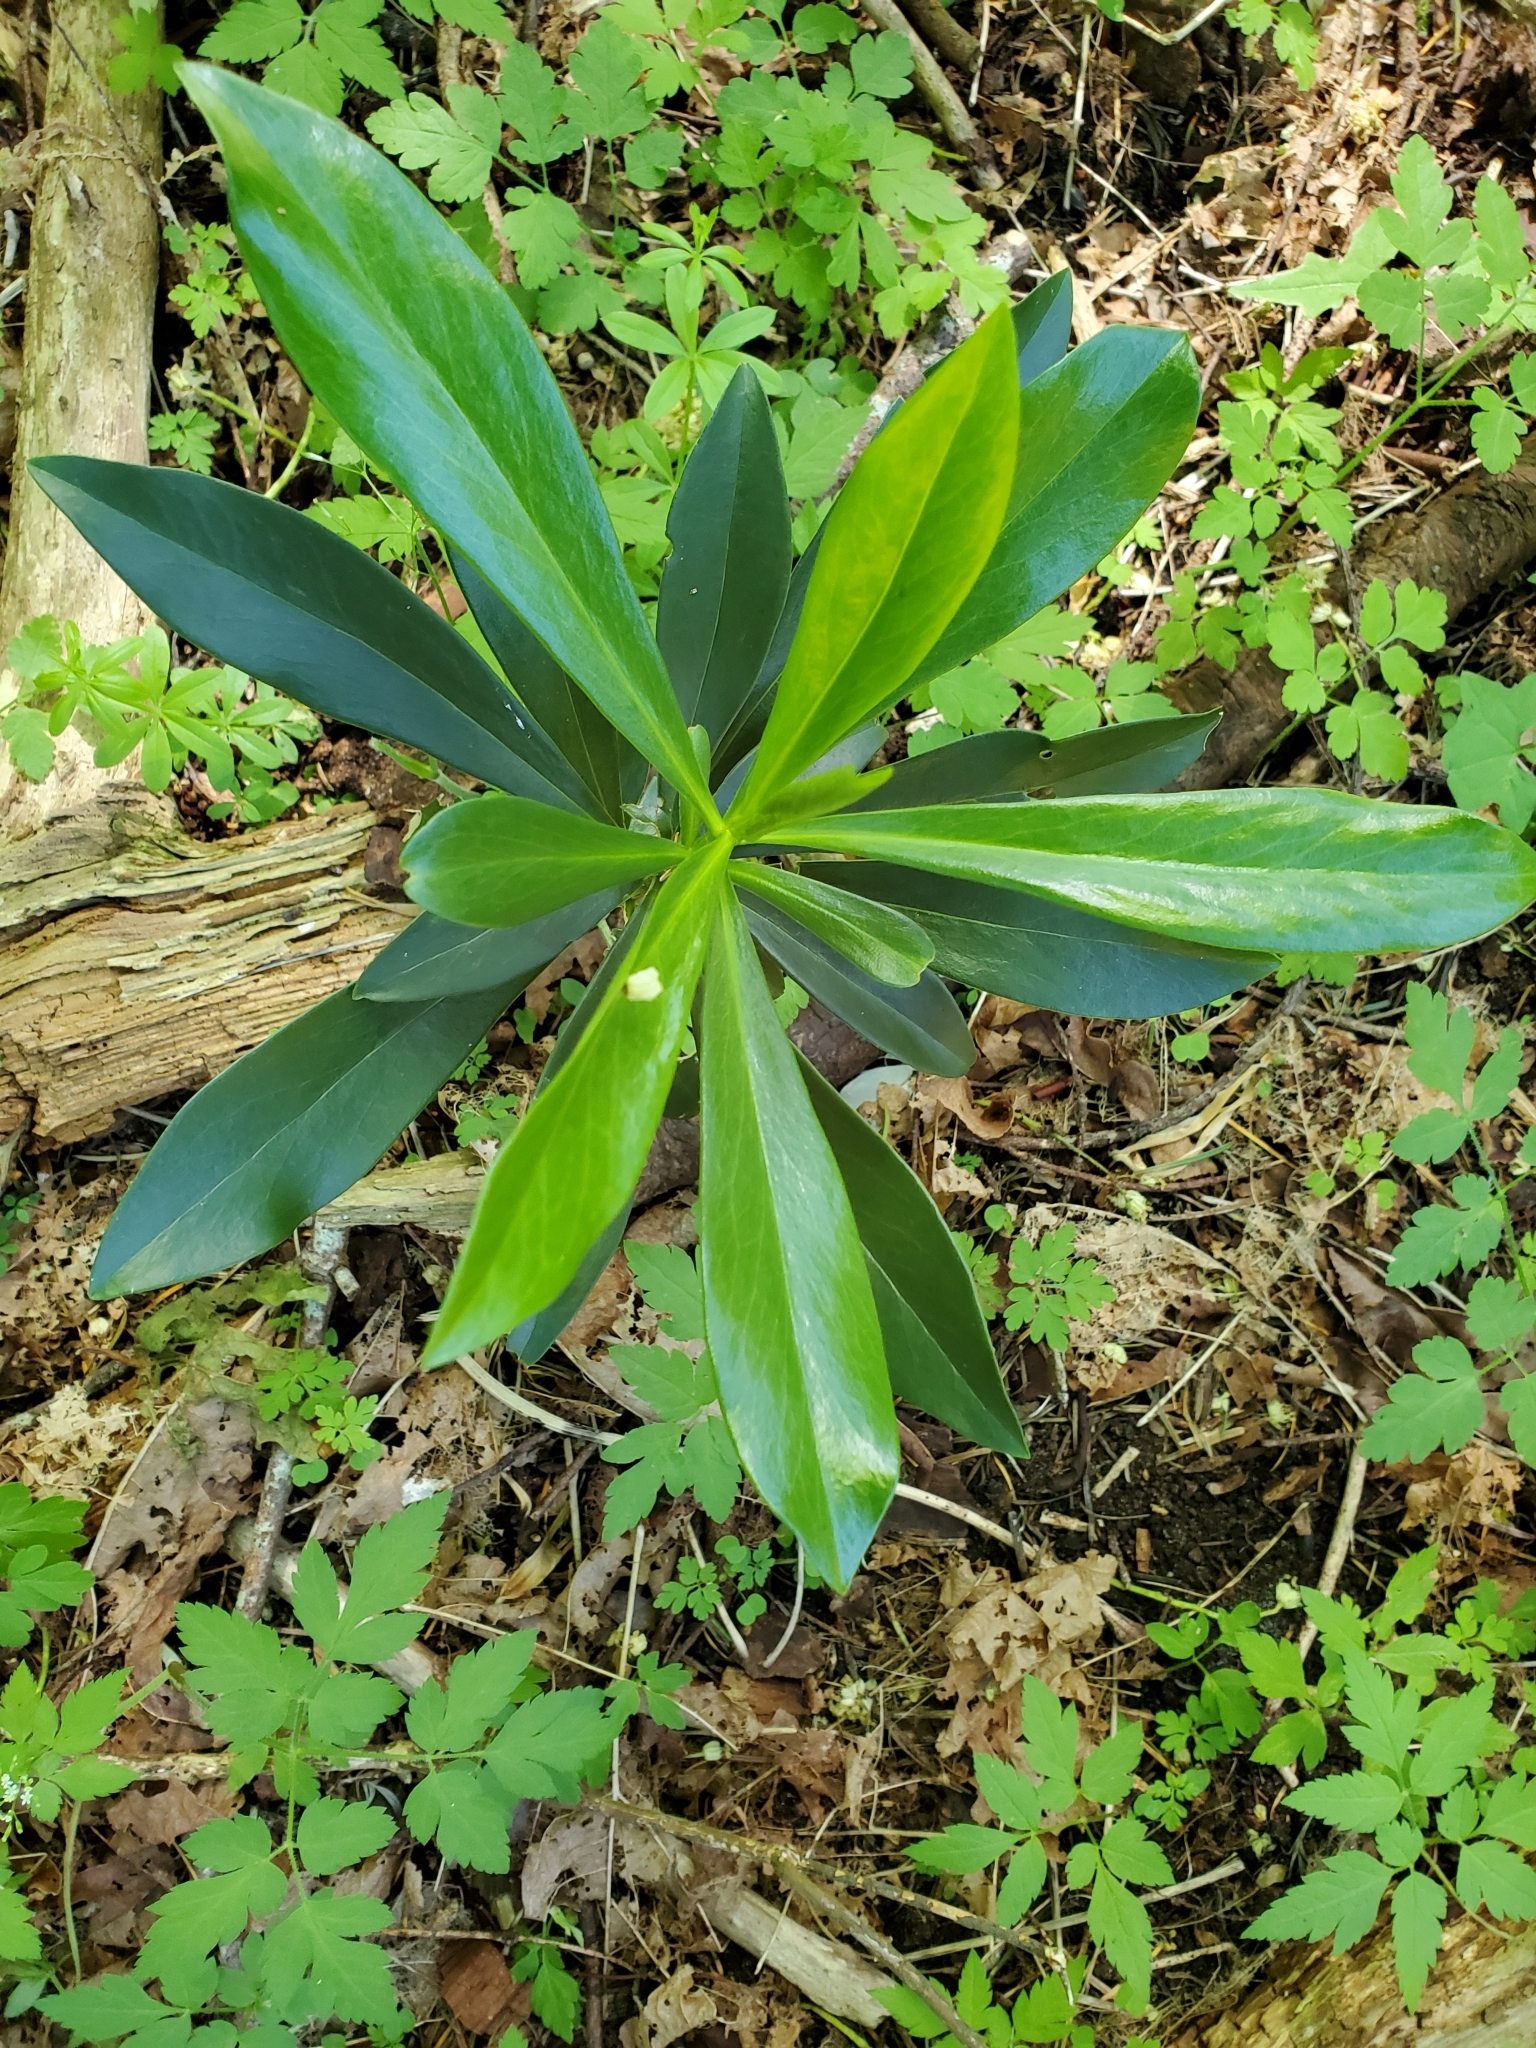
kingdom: Plantae
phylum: Tracheophyta
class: Magnoliopsida
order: Malvales
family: Thymelaeaceae
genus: Daphne
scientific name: Daphne laureola
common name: Spurge-laurel
